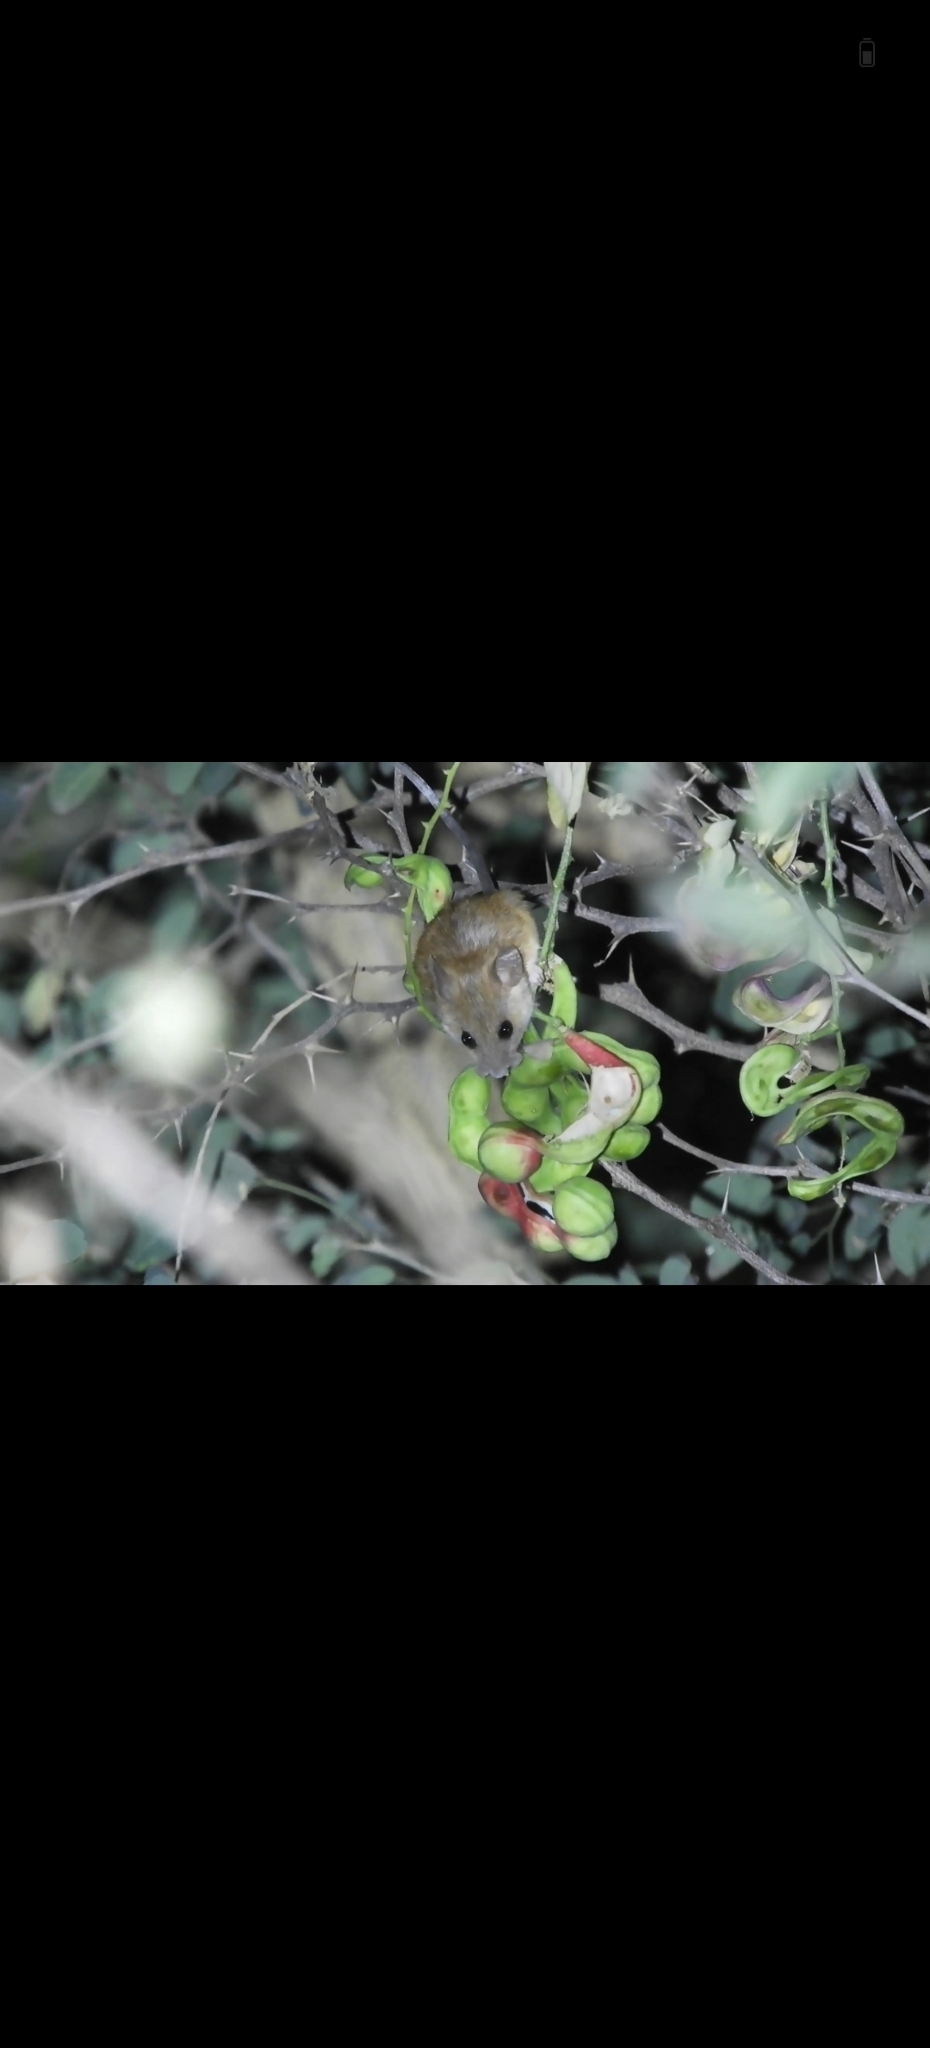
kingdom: Animalia
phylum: Chordata
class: Mammalia
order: Rodentia
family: Muridae
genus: Vandeleuria
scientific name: Vandeleuria oleracea
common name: Indomalayan vandeleuria
